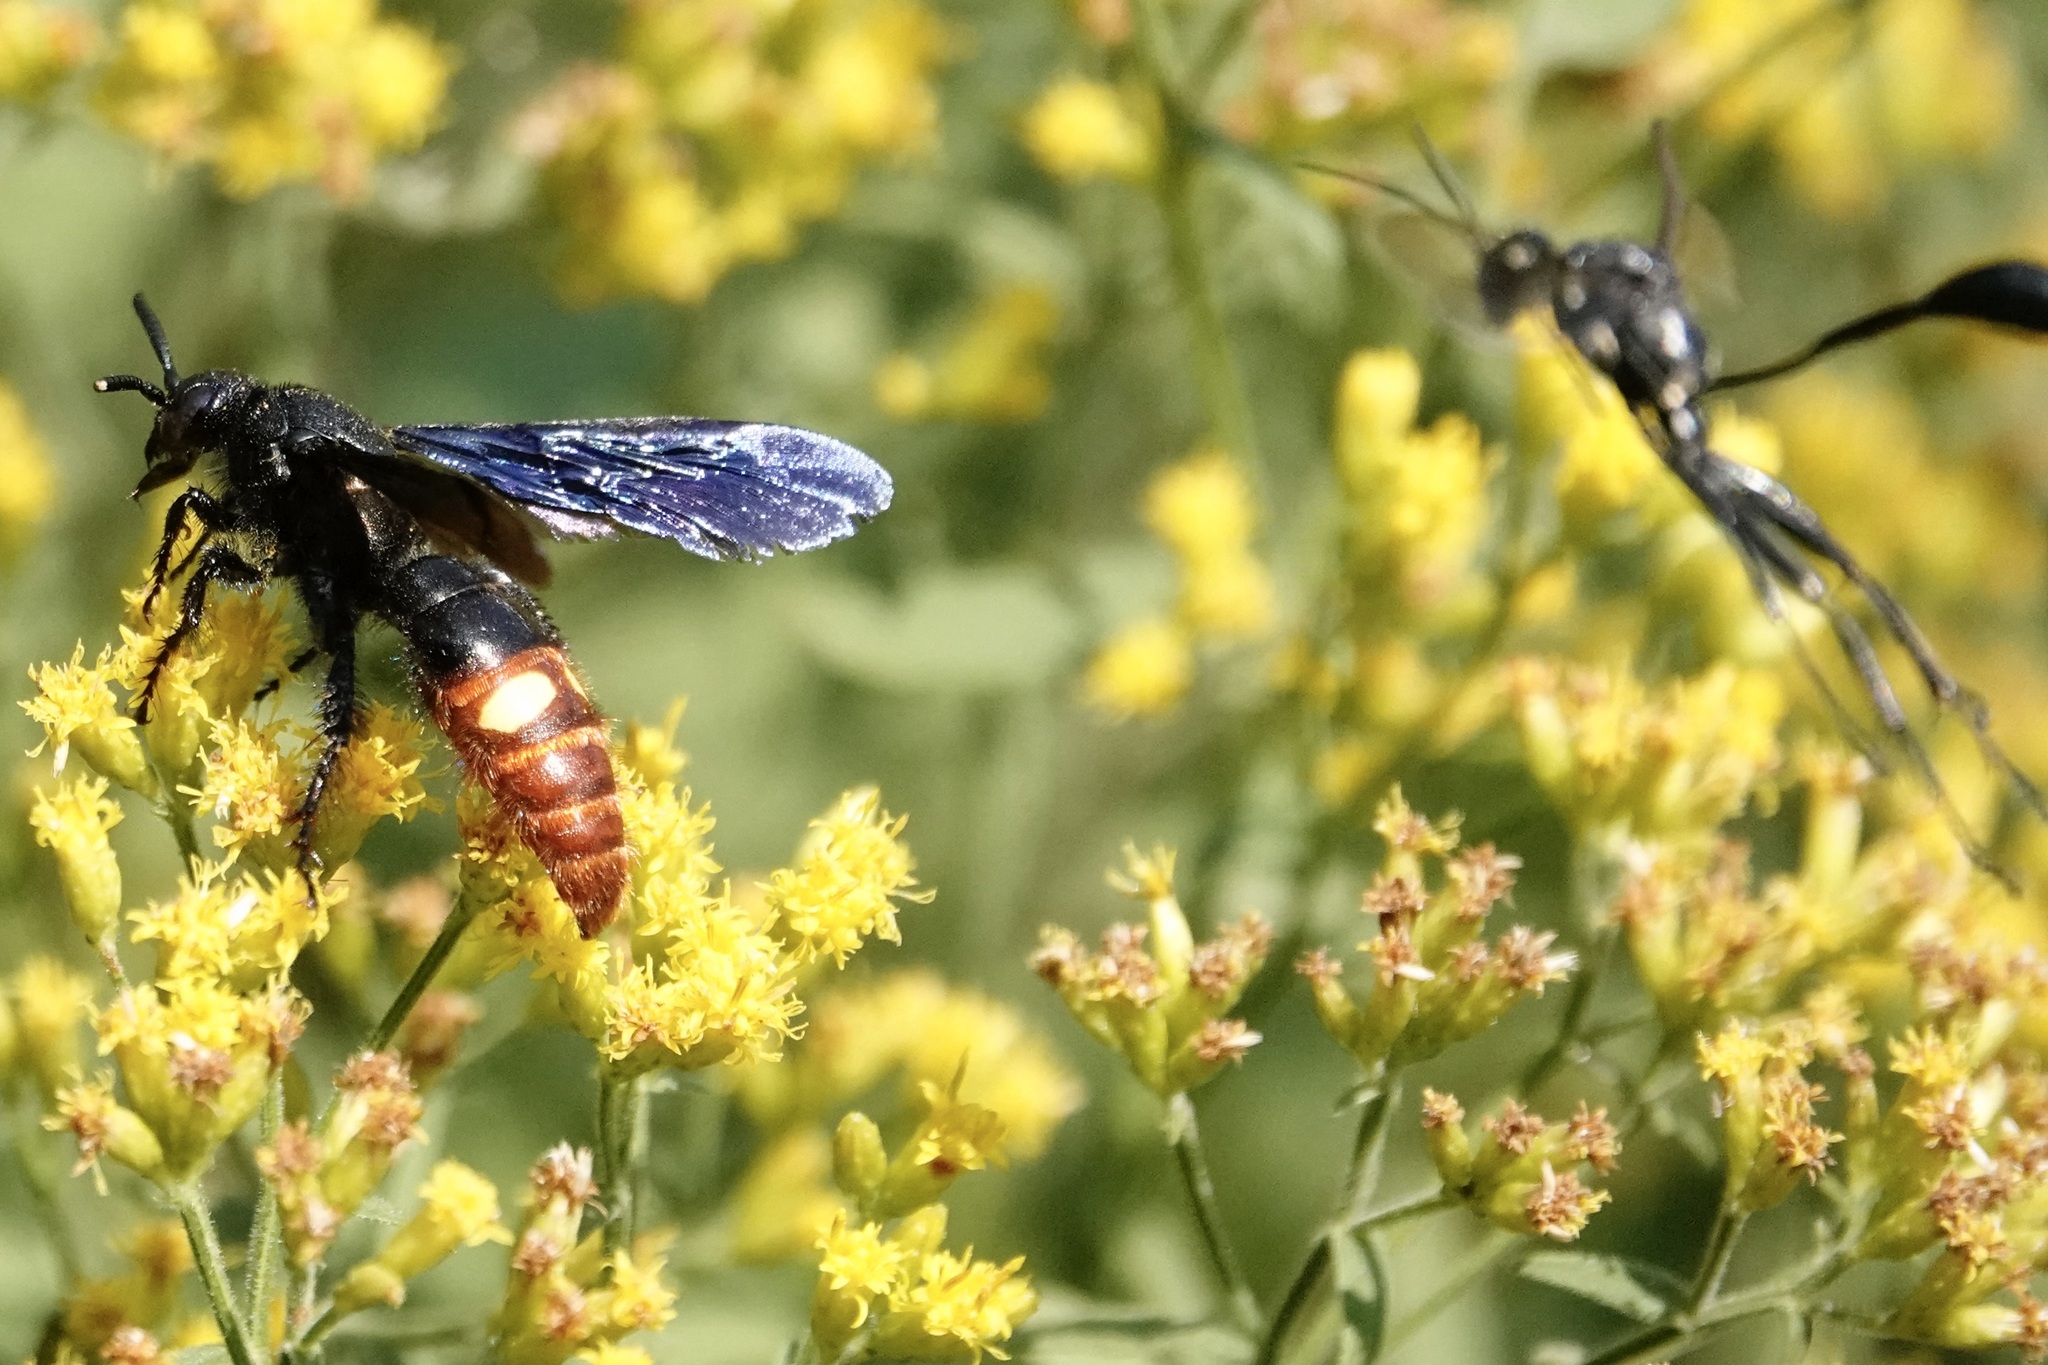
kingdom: Animalia
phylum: Arthropoda
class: Insecta
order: Hymenoptera
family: Scoliidae
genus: Scolia
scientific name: Scolia dubia
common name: Blue-winged scoliid wasp
